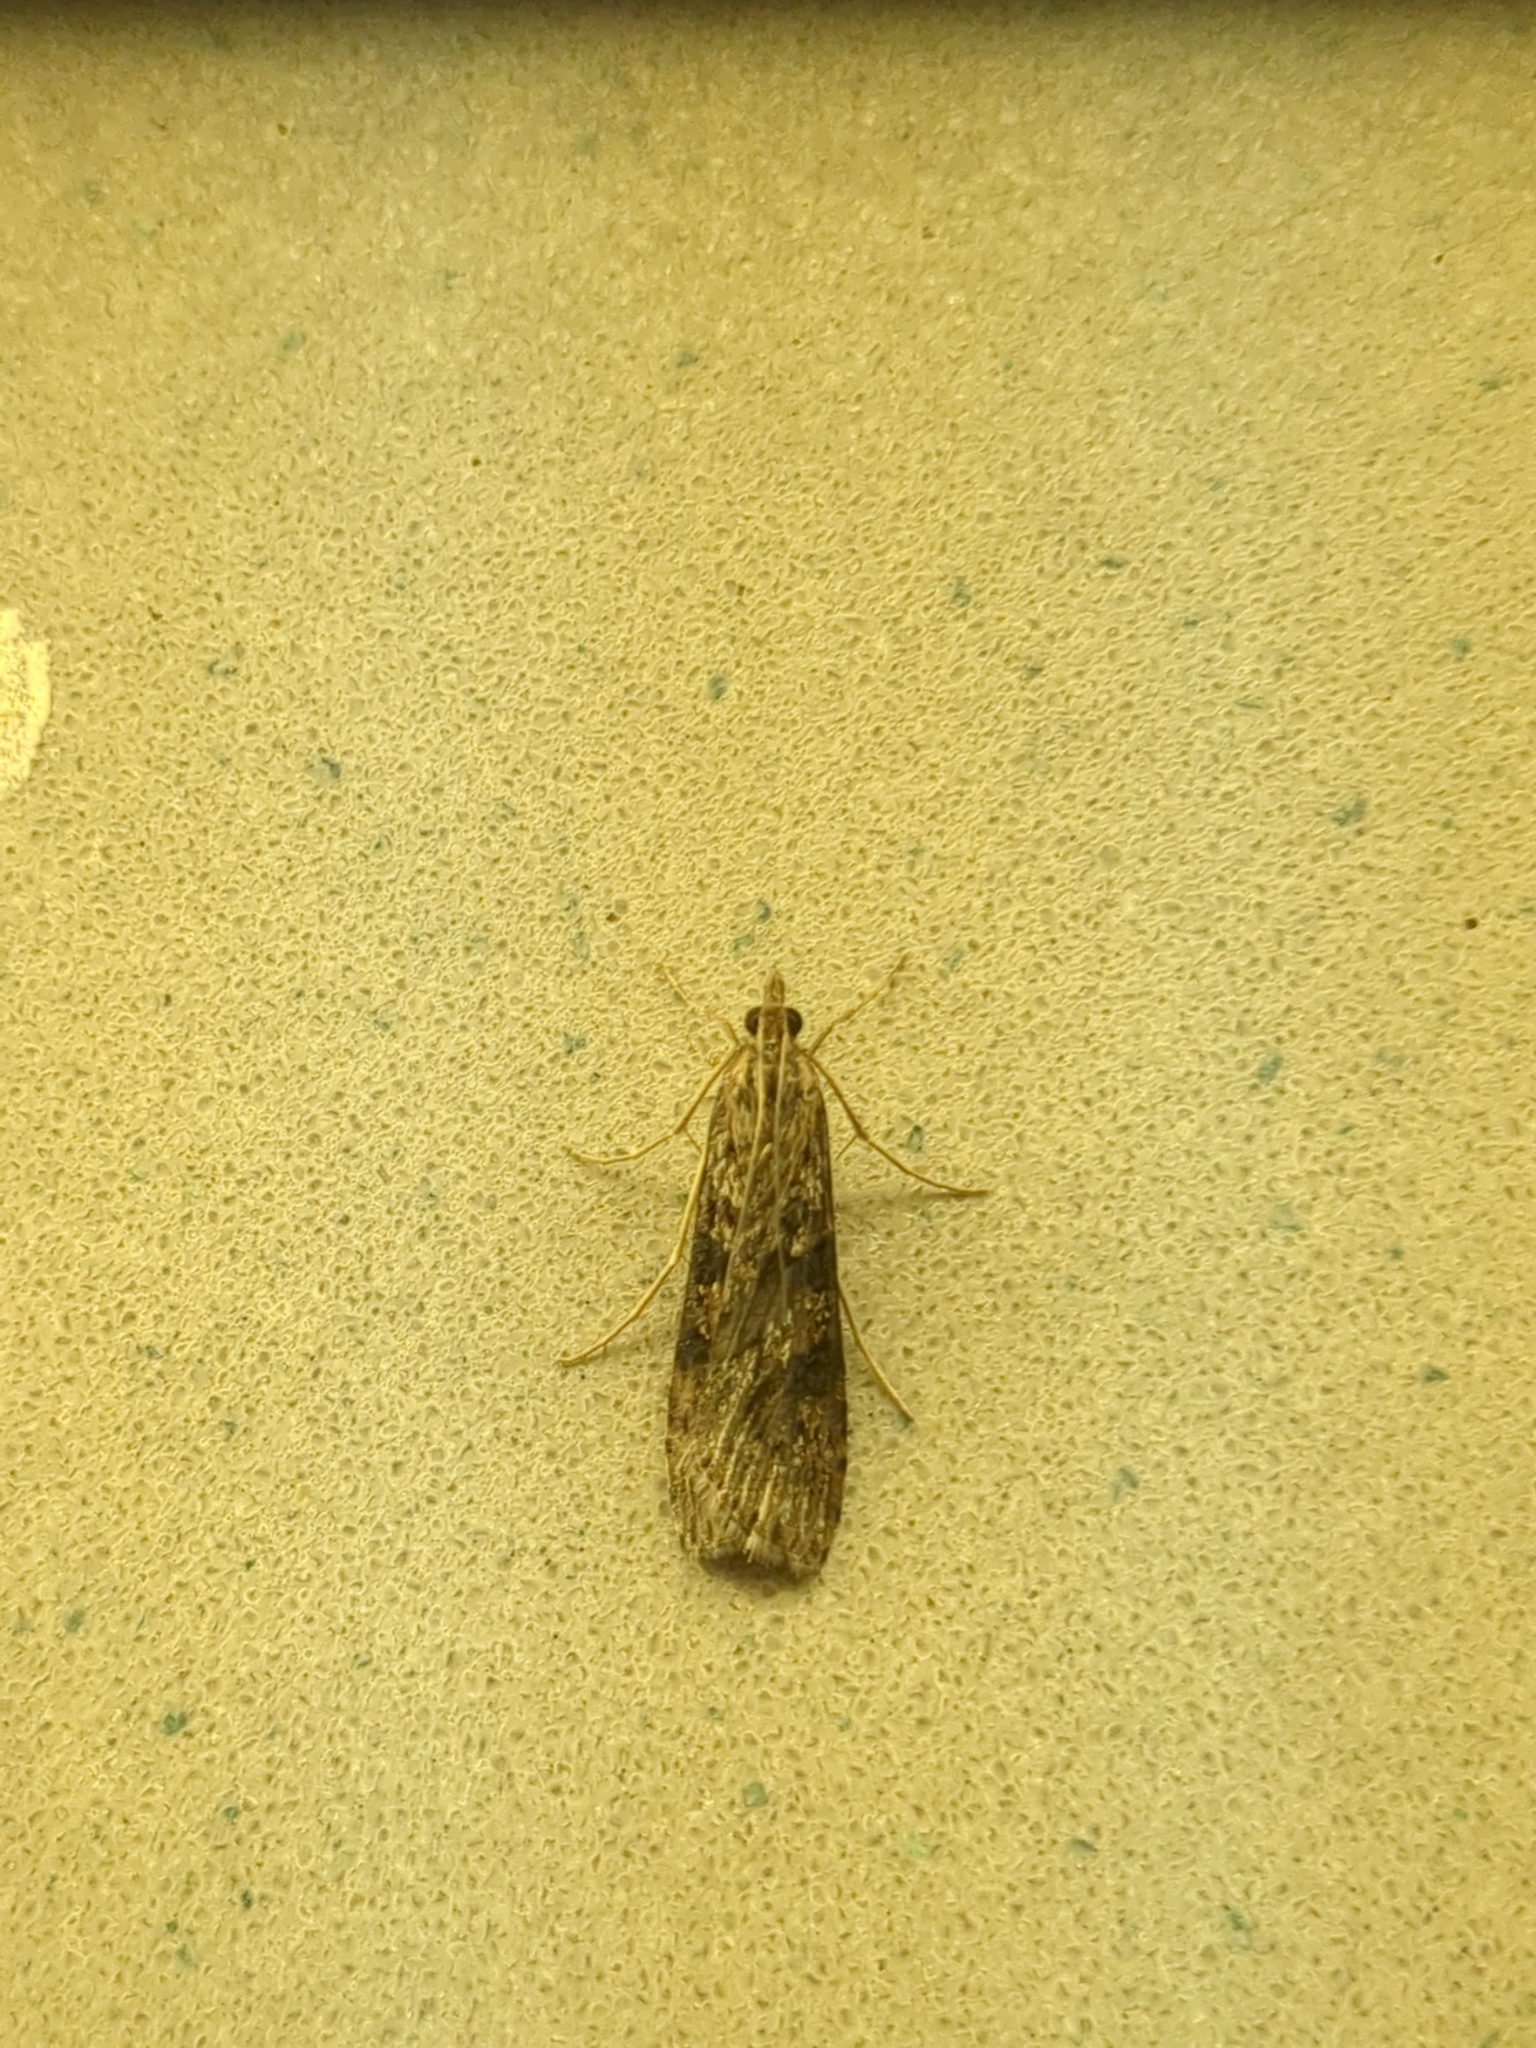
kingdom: Animalia
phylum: Arthropoda
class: Insecta
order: Lepidoptera
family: Crambidae
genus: Nomophila
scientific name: Nomophila nearctica
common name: American rush veneer
